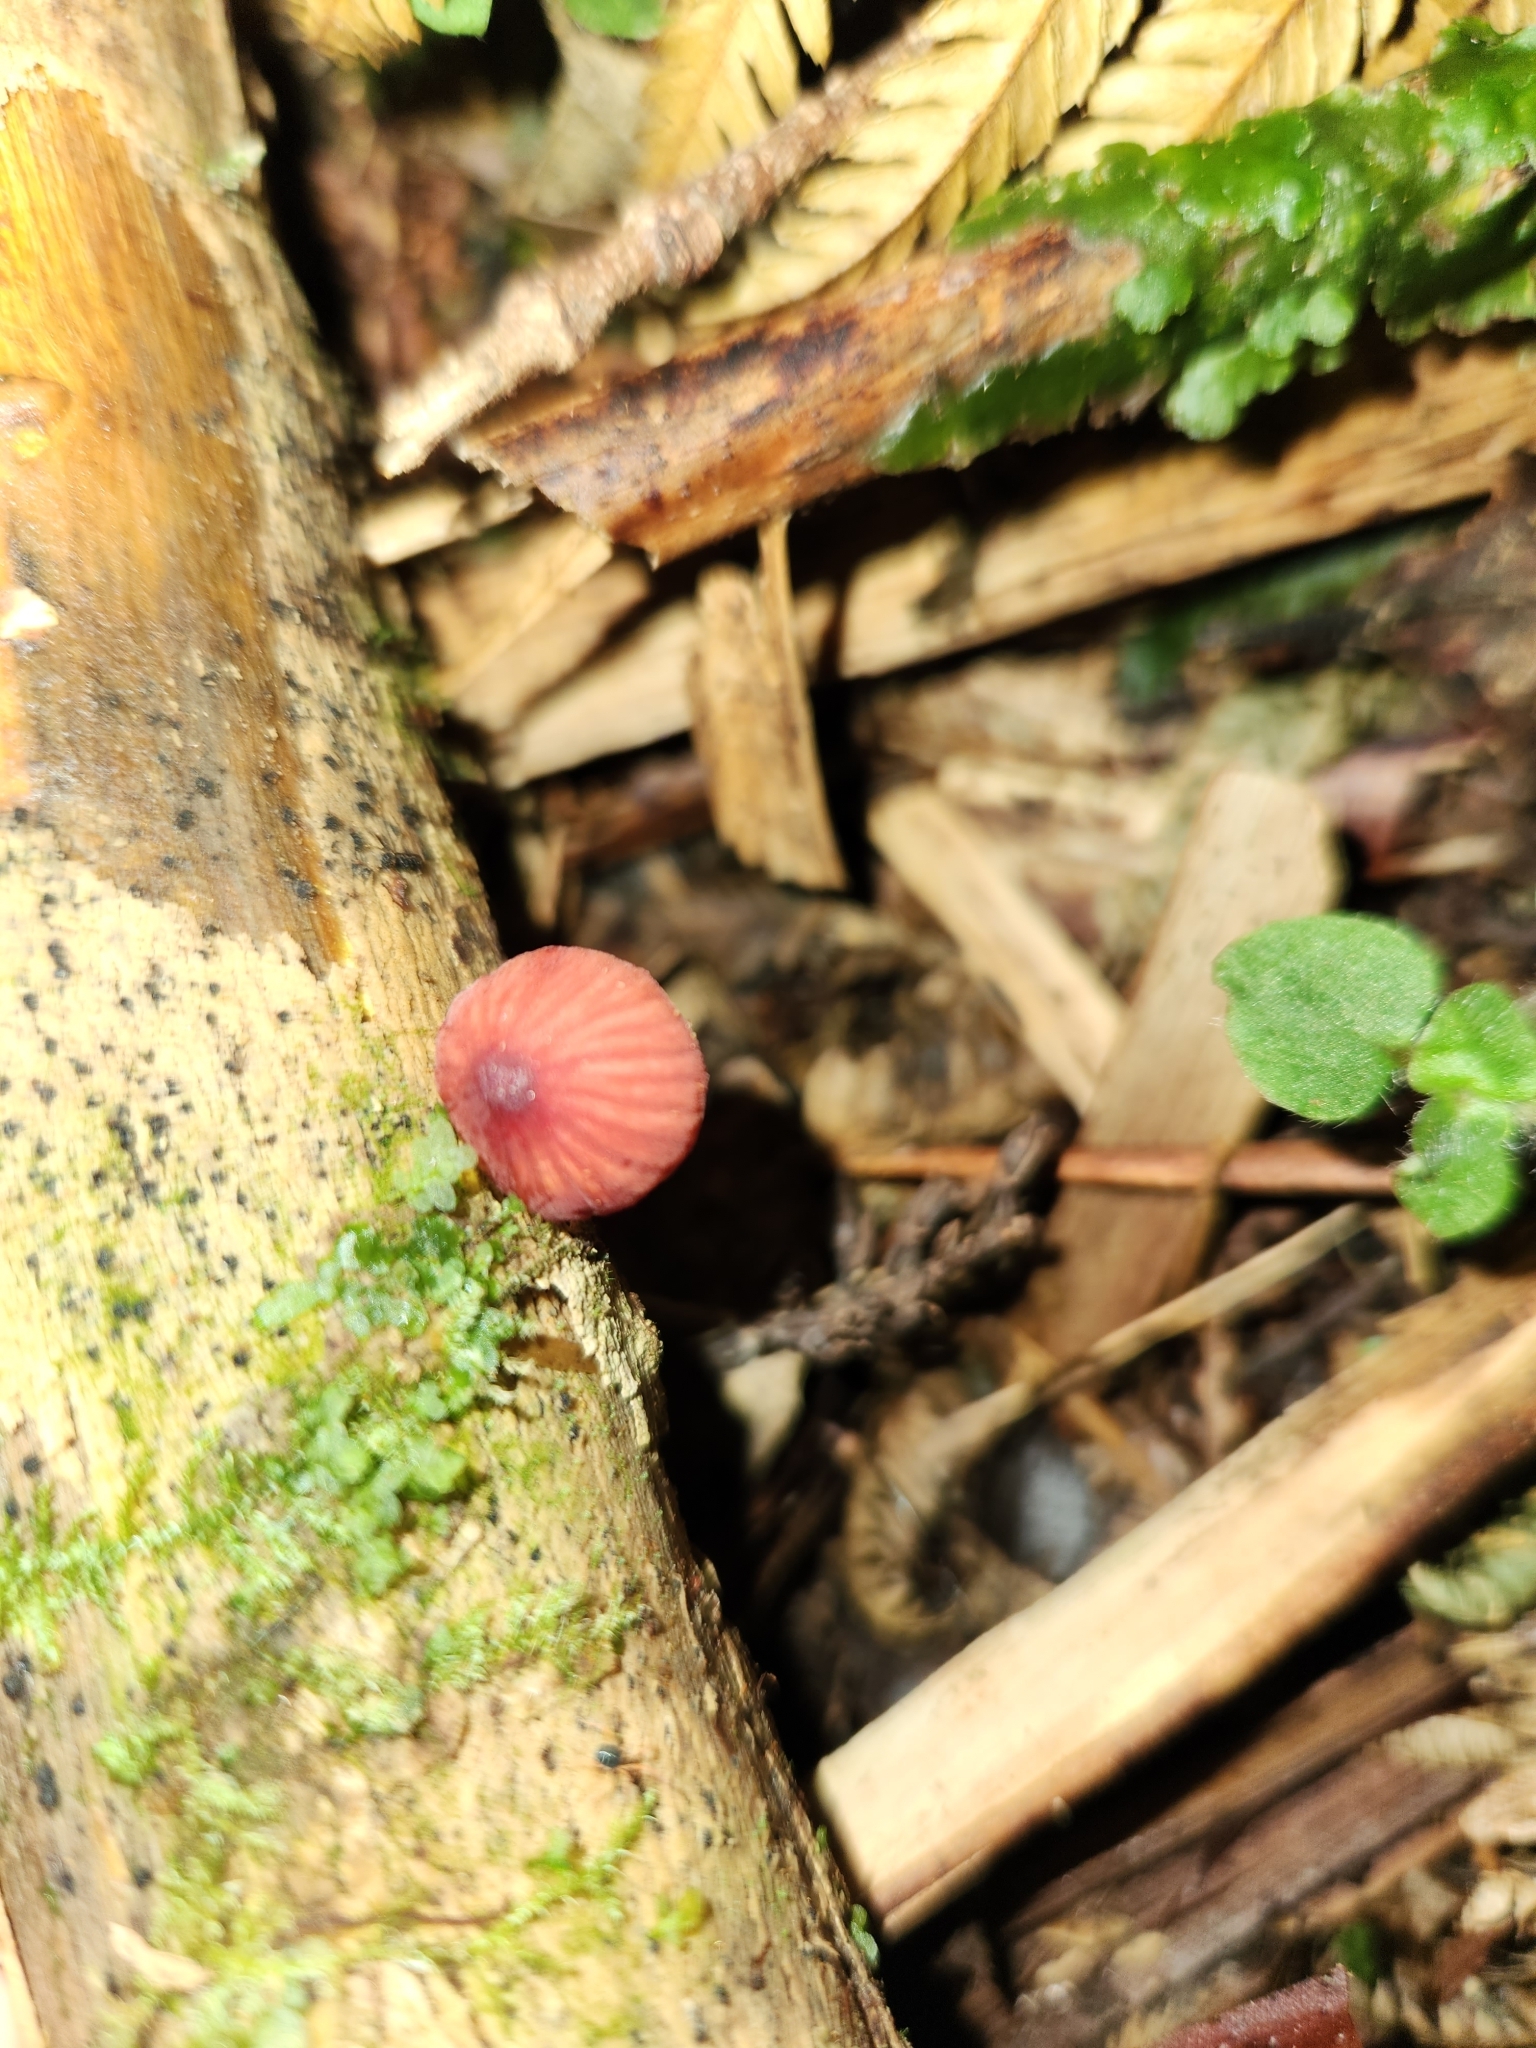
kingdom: Fungi
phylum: Basidiomycota
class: Agaricomycetes
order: Agaricales
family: Mycenaceae
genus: Mycena
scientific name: Mycena ura
